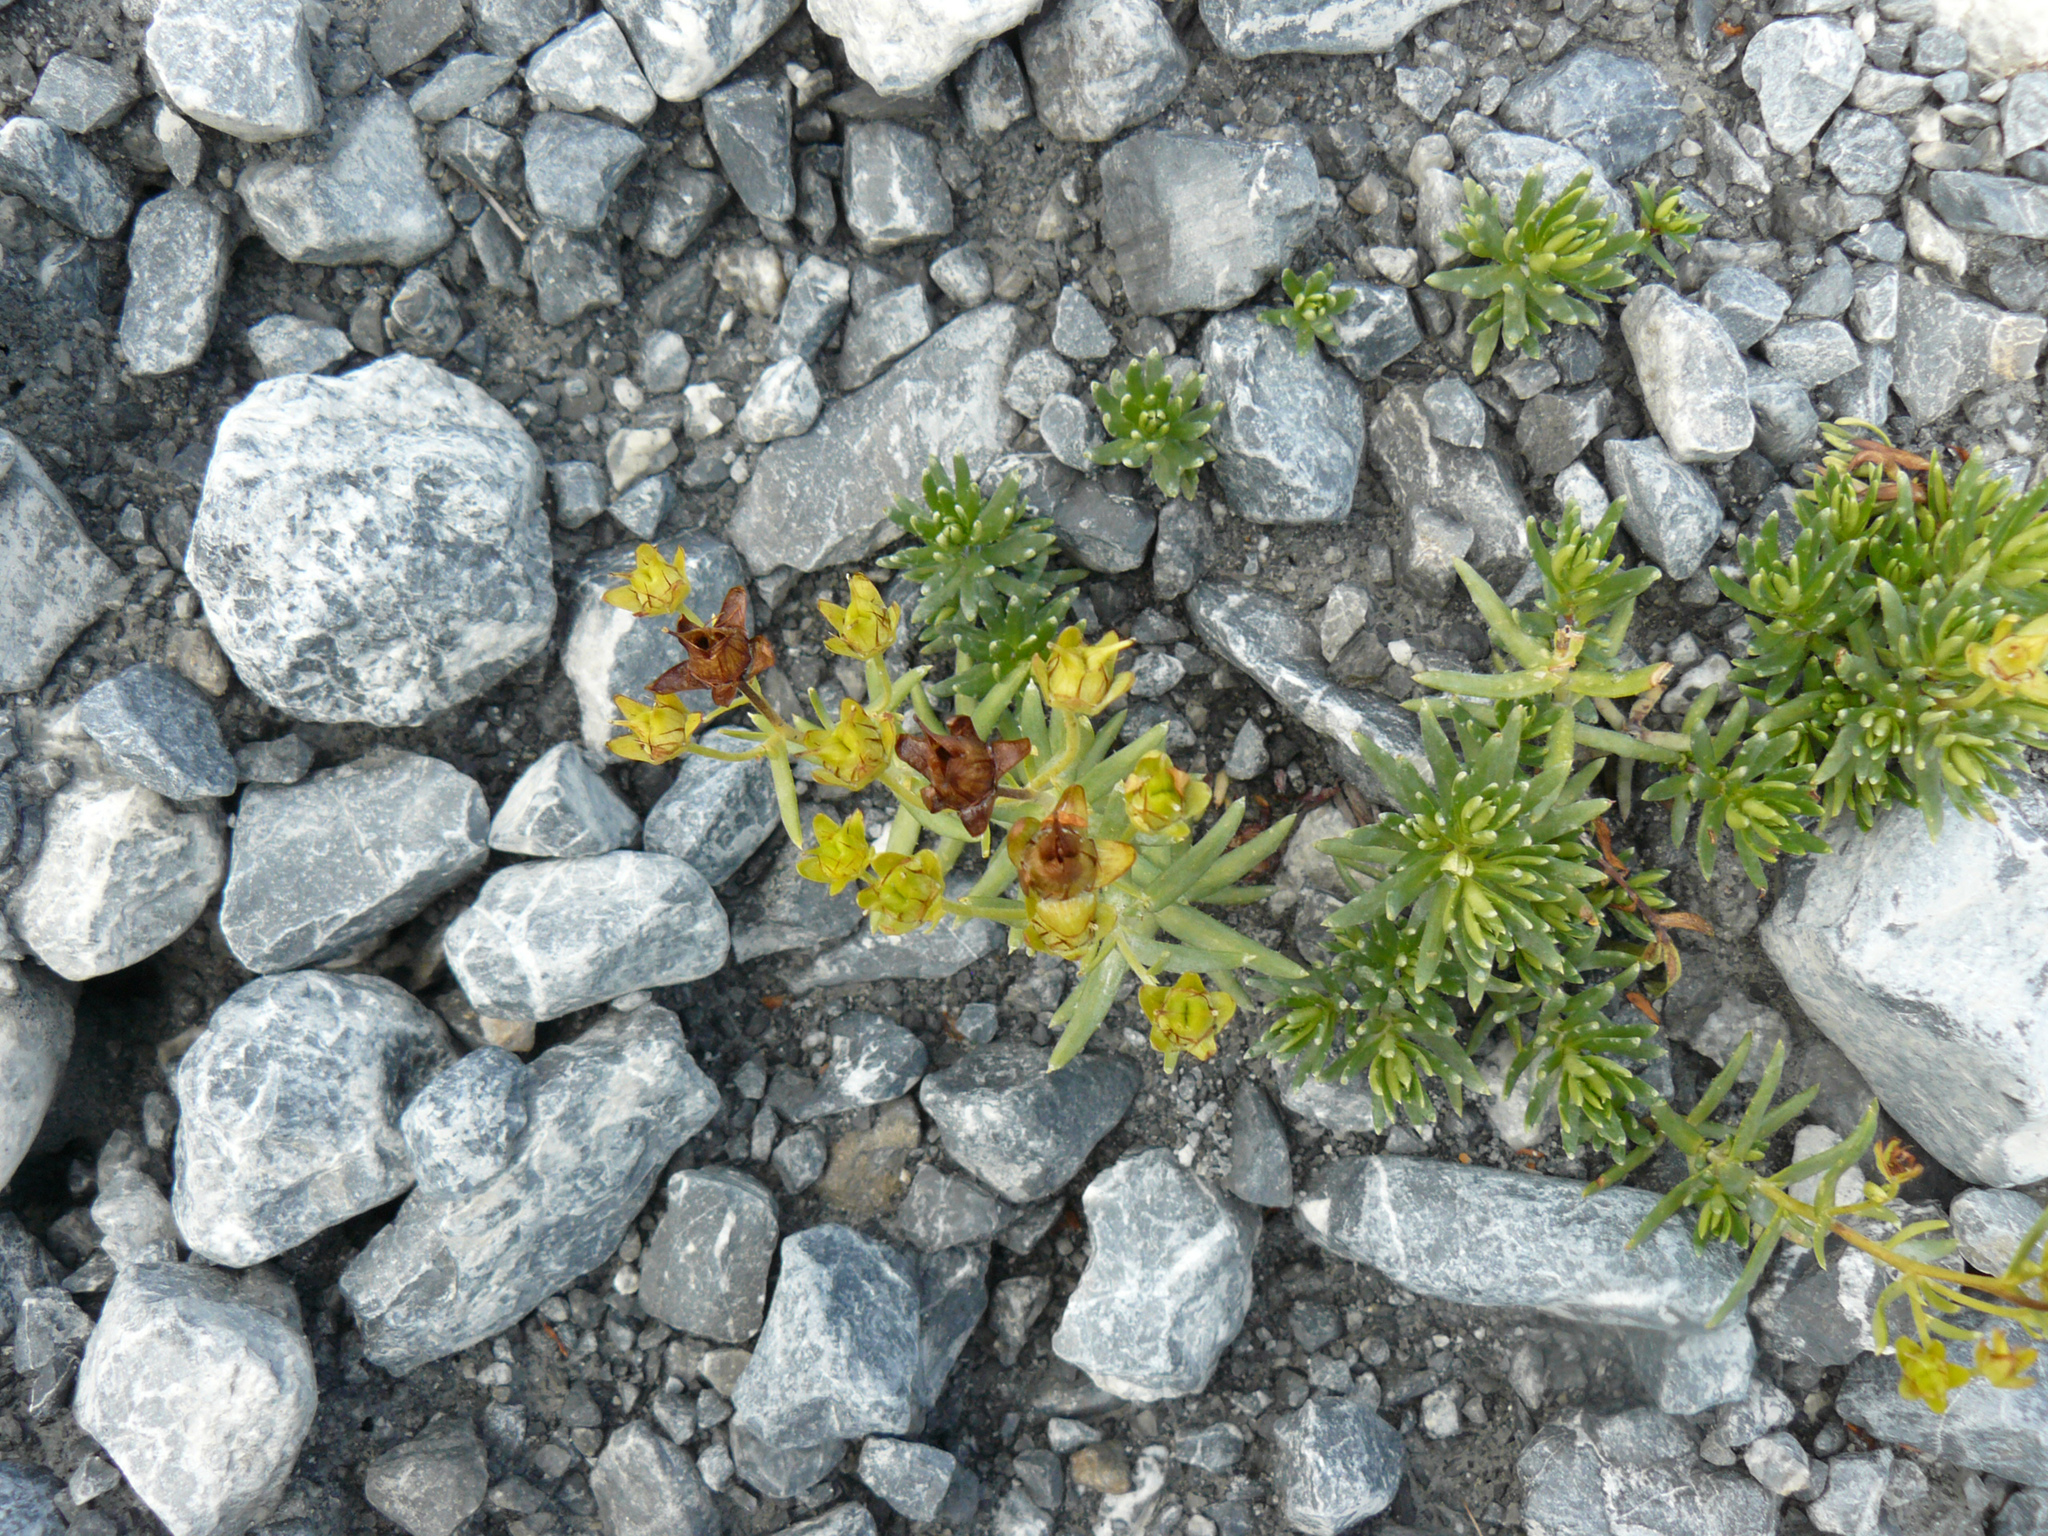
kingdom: Plantae
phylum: Tracheophyta
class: Magnoliopsida
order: Saxifragales
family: Saxifragaceae
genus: Saxifraga
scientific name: Saxifraga aizoides
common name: Yellow mountain saxifrage
